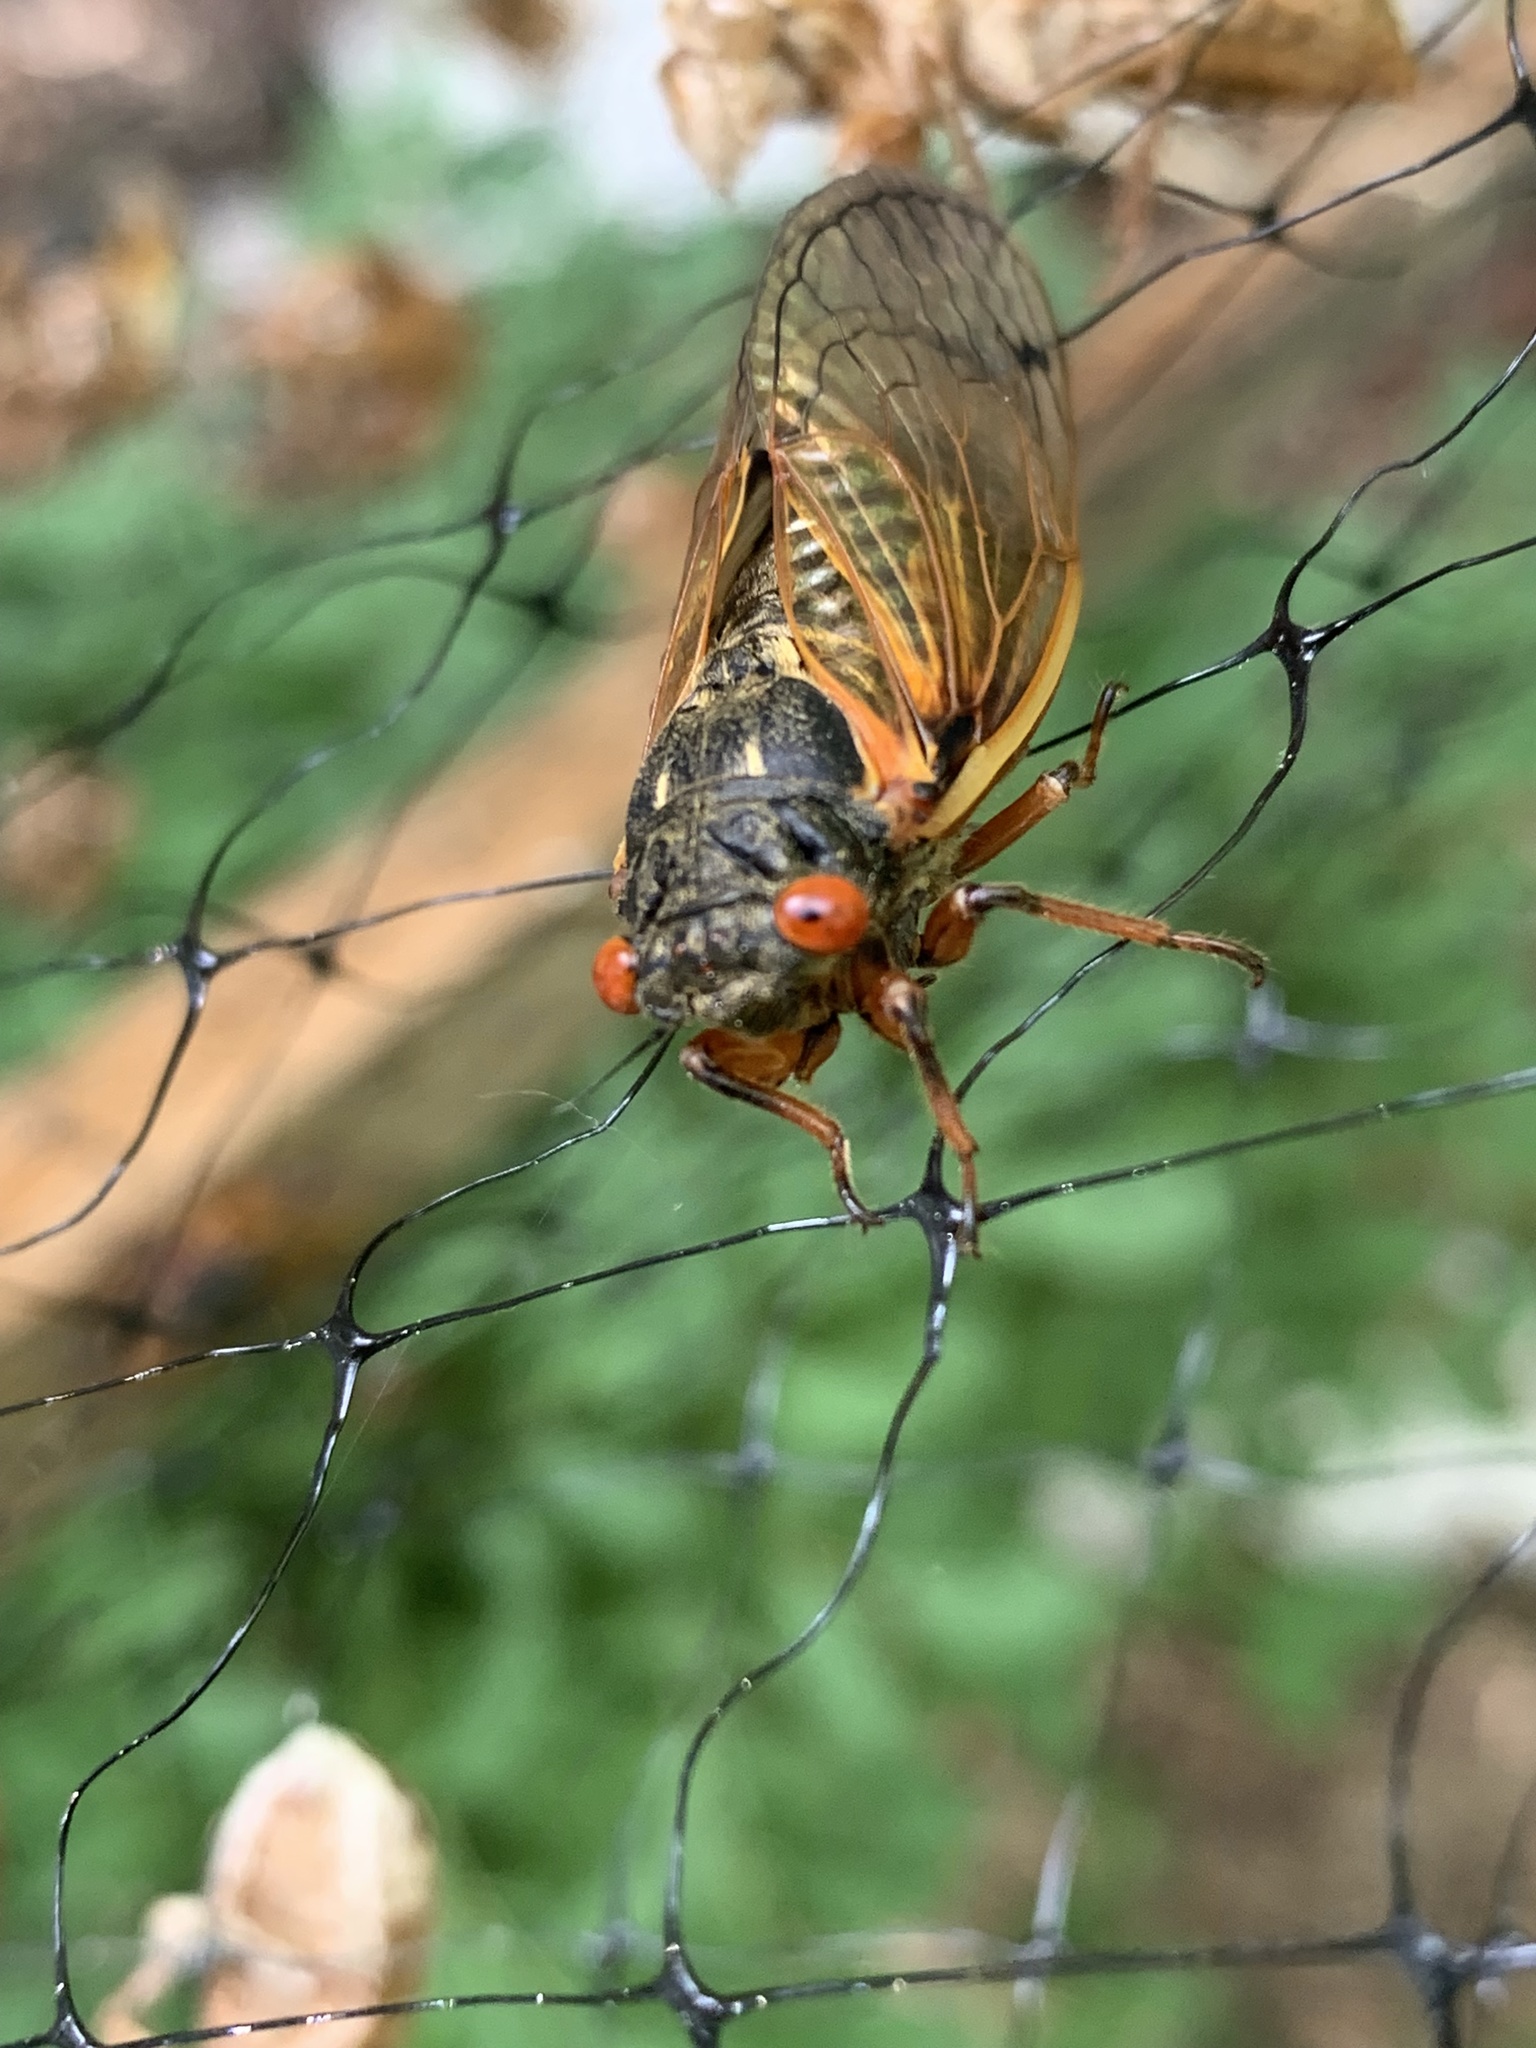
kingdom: Animalia
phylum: Arthropoda
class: Insecta
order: Hemiptera
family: Cicadidae
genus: Magicicada
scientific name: Magicicada
